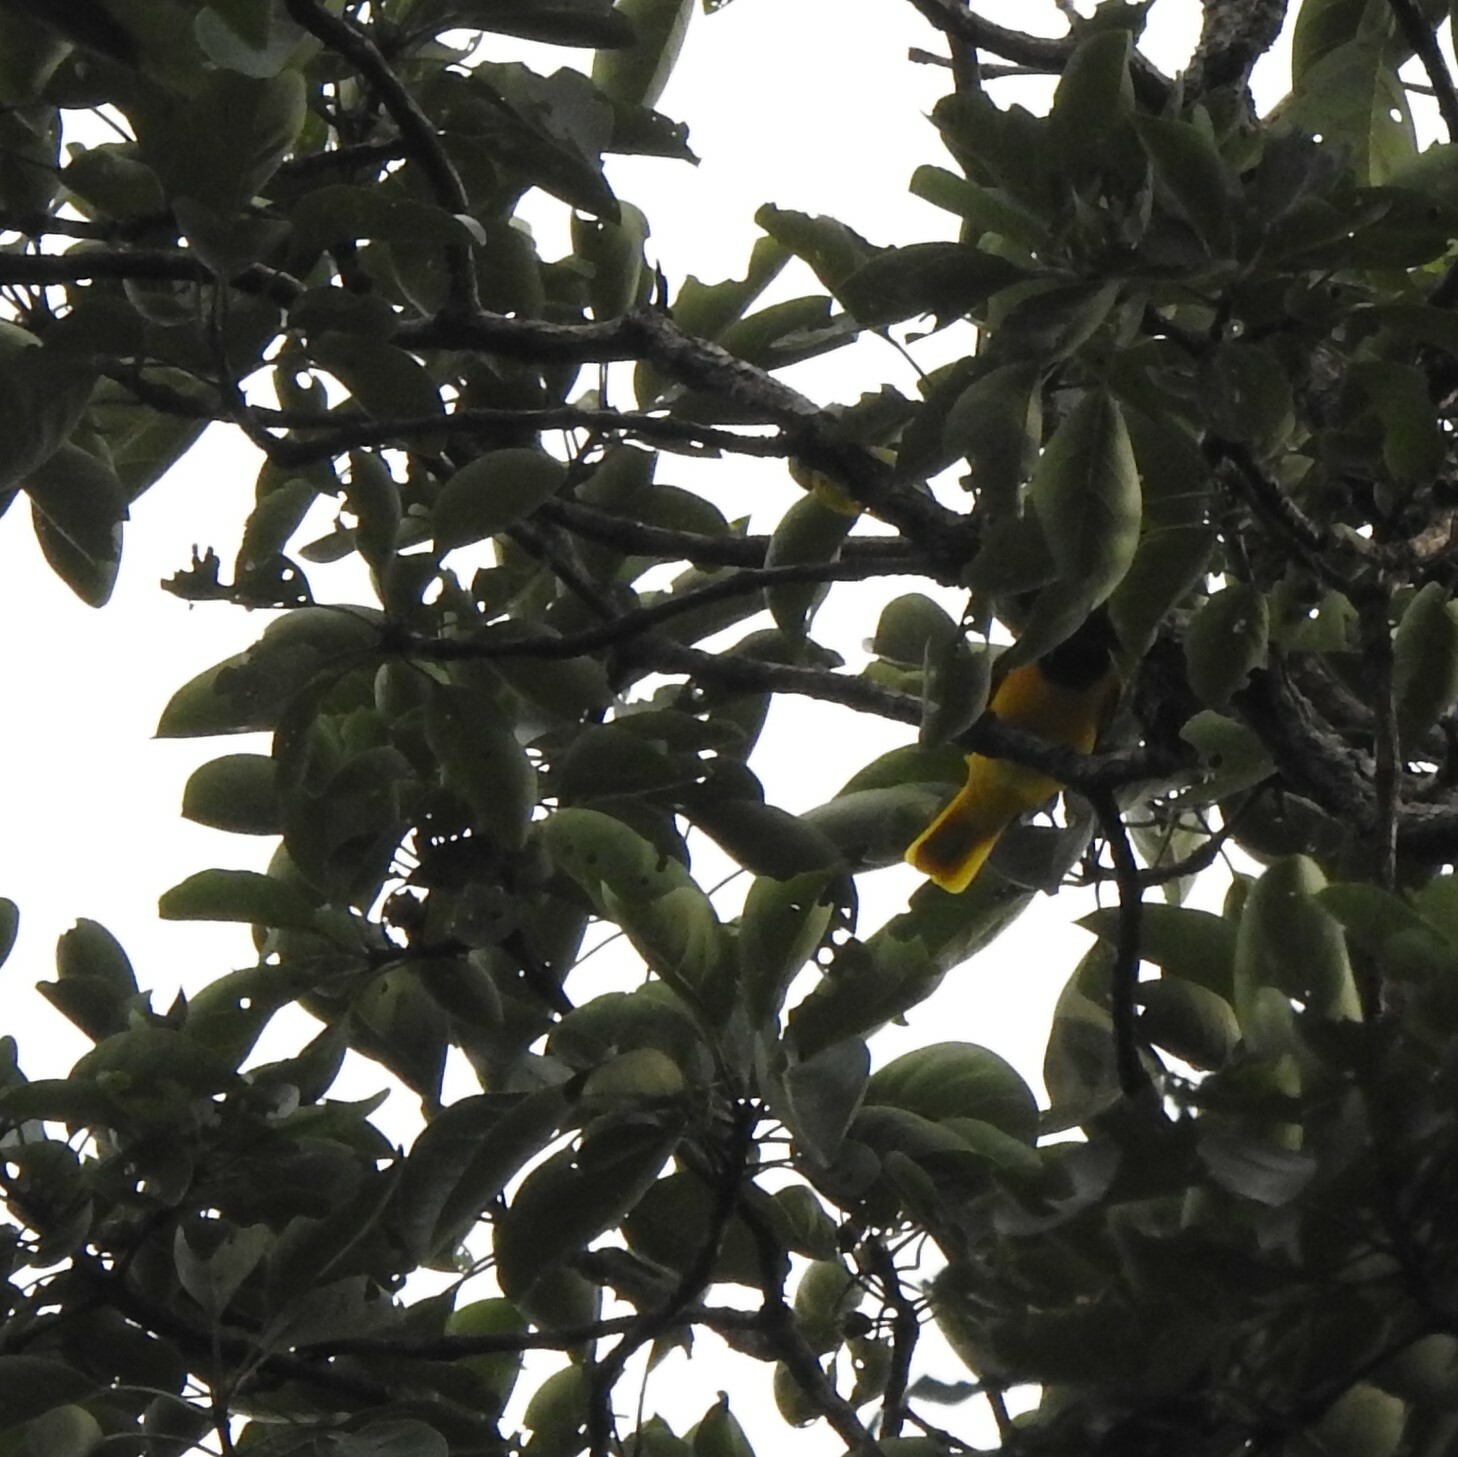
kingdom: Animalia
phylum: Chordata
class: Aves
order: Passeriformes
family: Oriolidae
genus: Oriolus
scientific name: Oriolus xanthornus
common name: Black-hooded oriole
